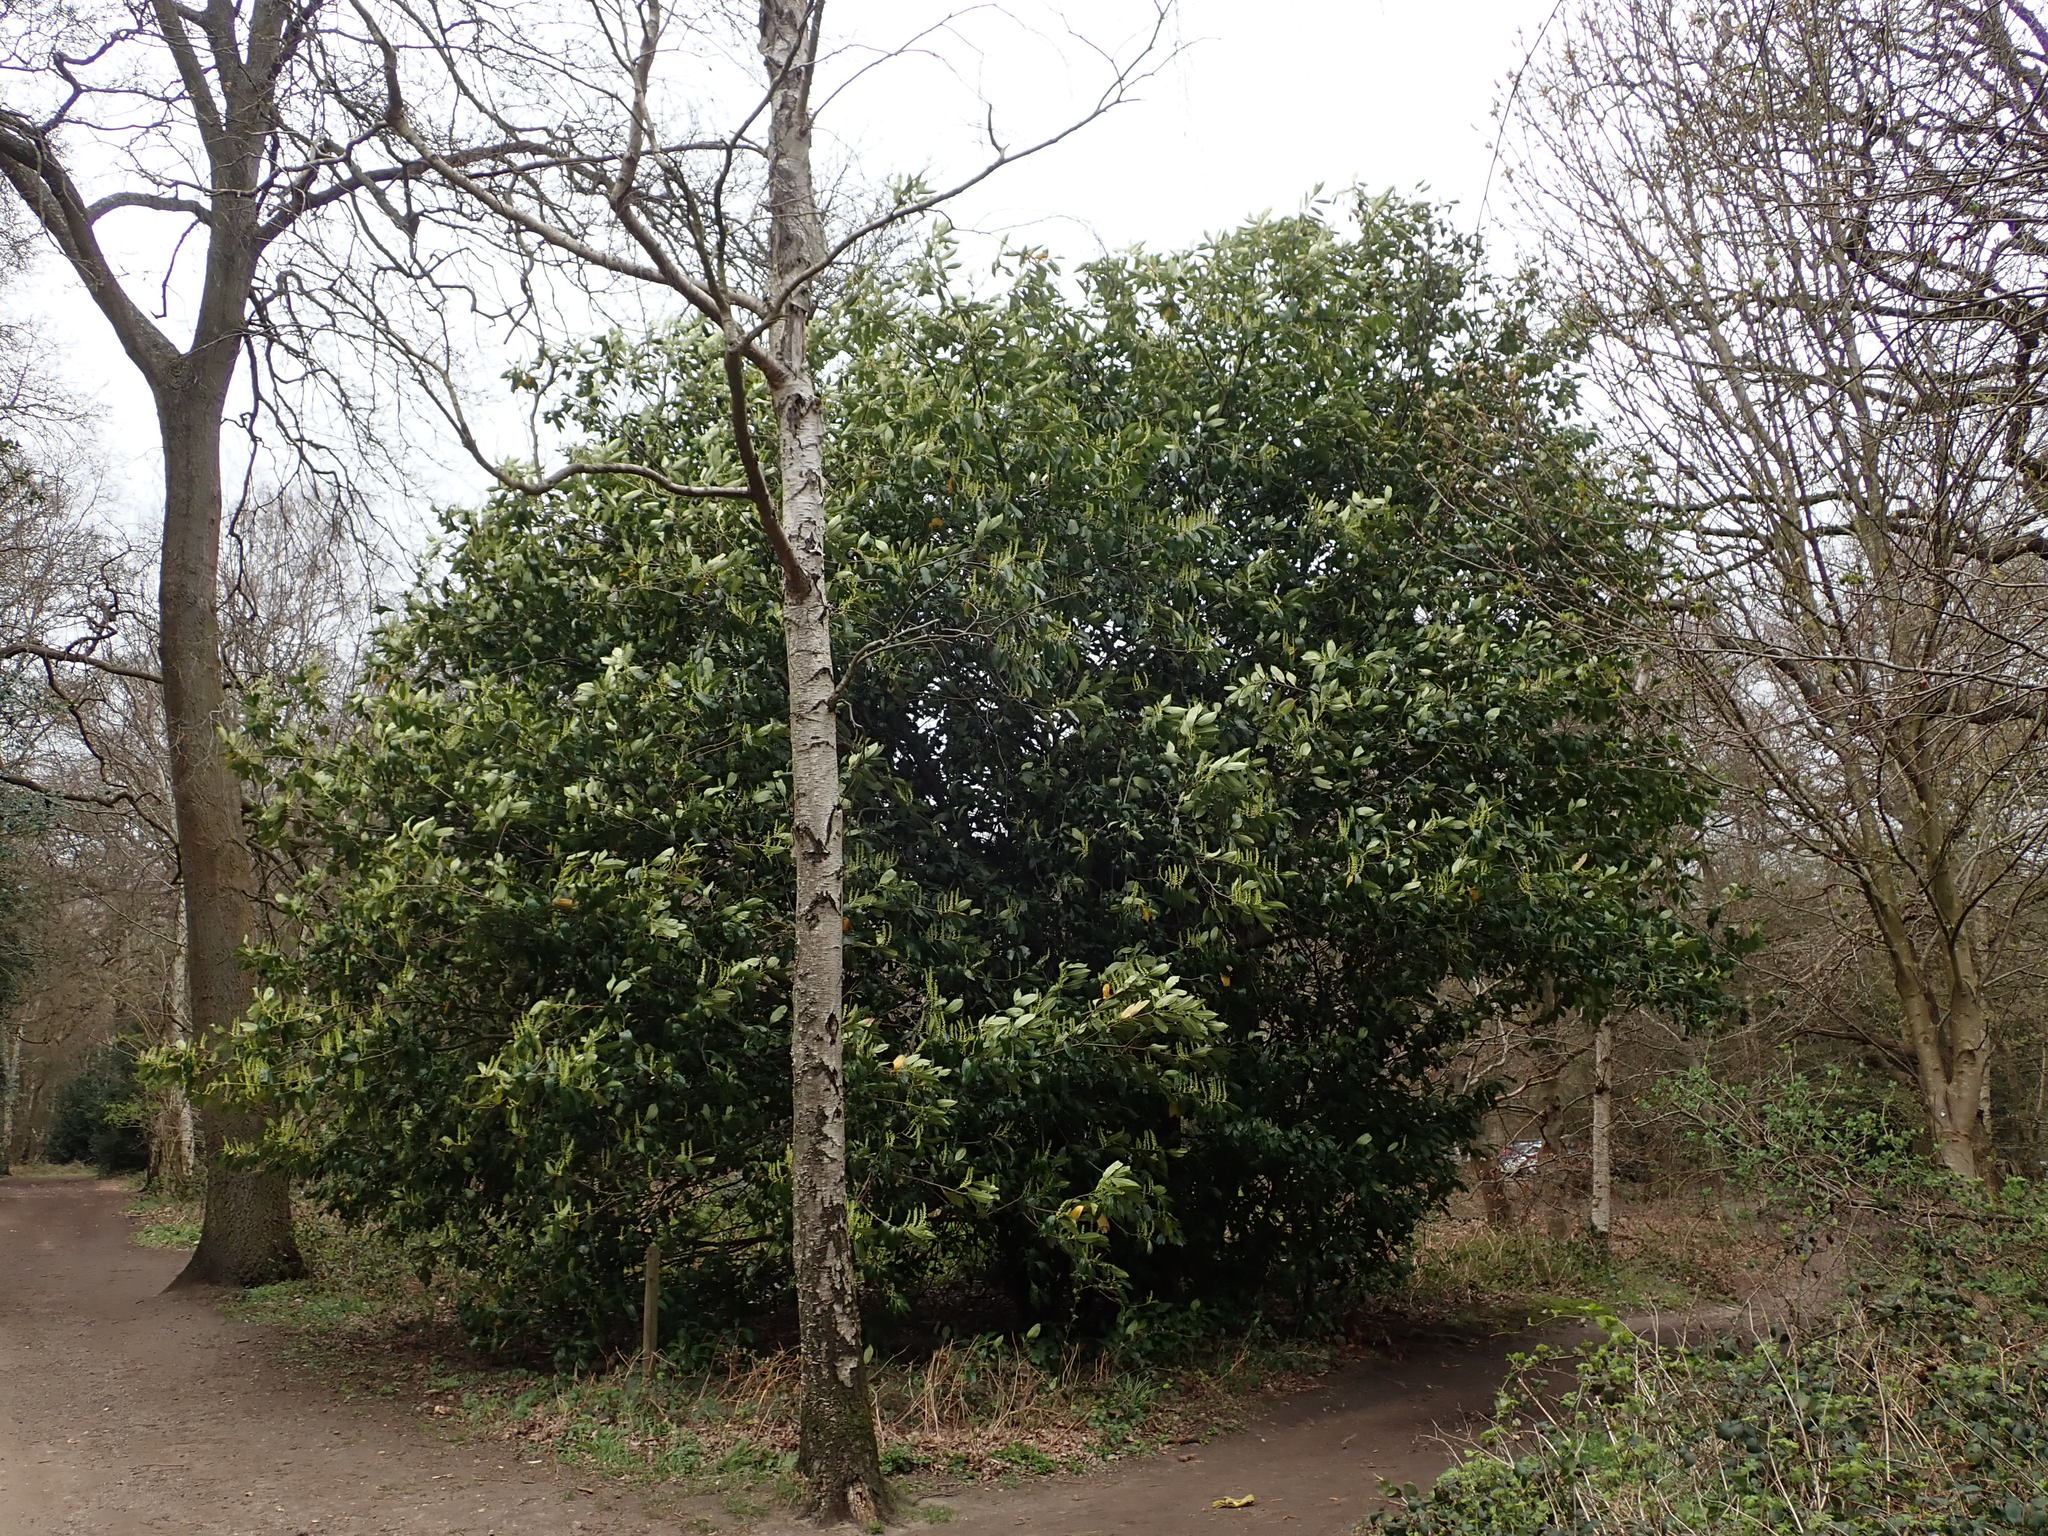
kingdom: Plantae
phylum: Tracheophyta
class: Magnoliopsida
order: Rosales
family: Rosaceae
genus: Prunus
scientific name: Prunus laurocerasus
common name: Cherry laurel
